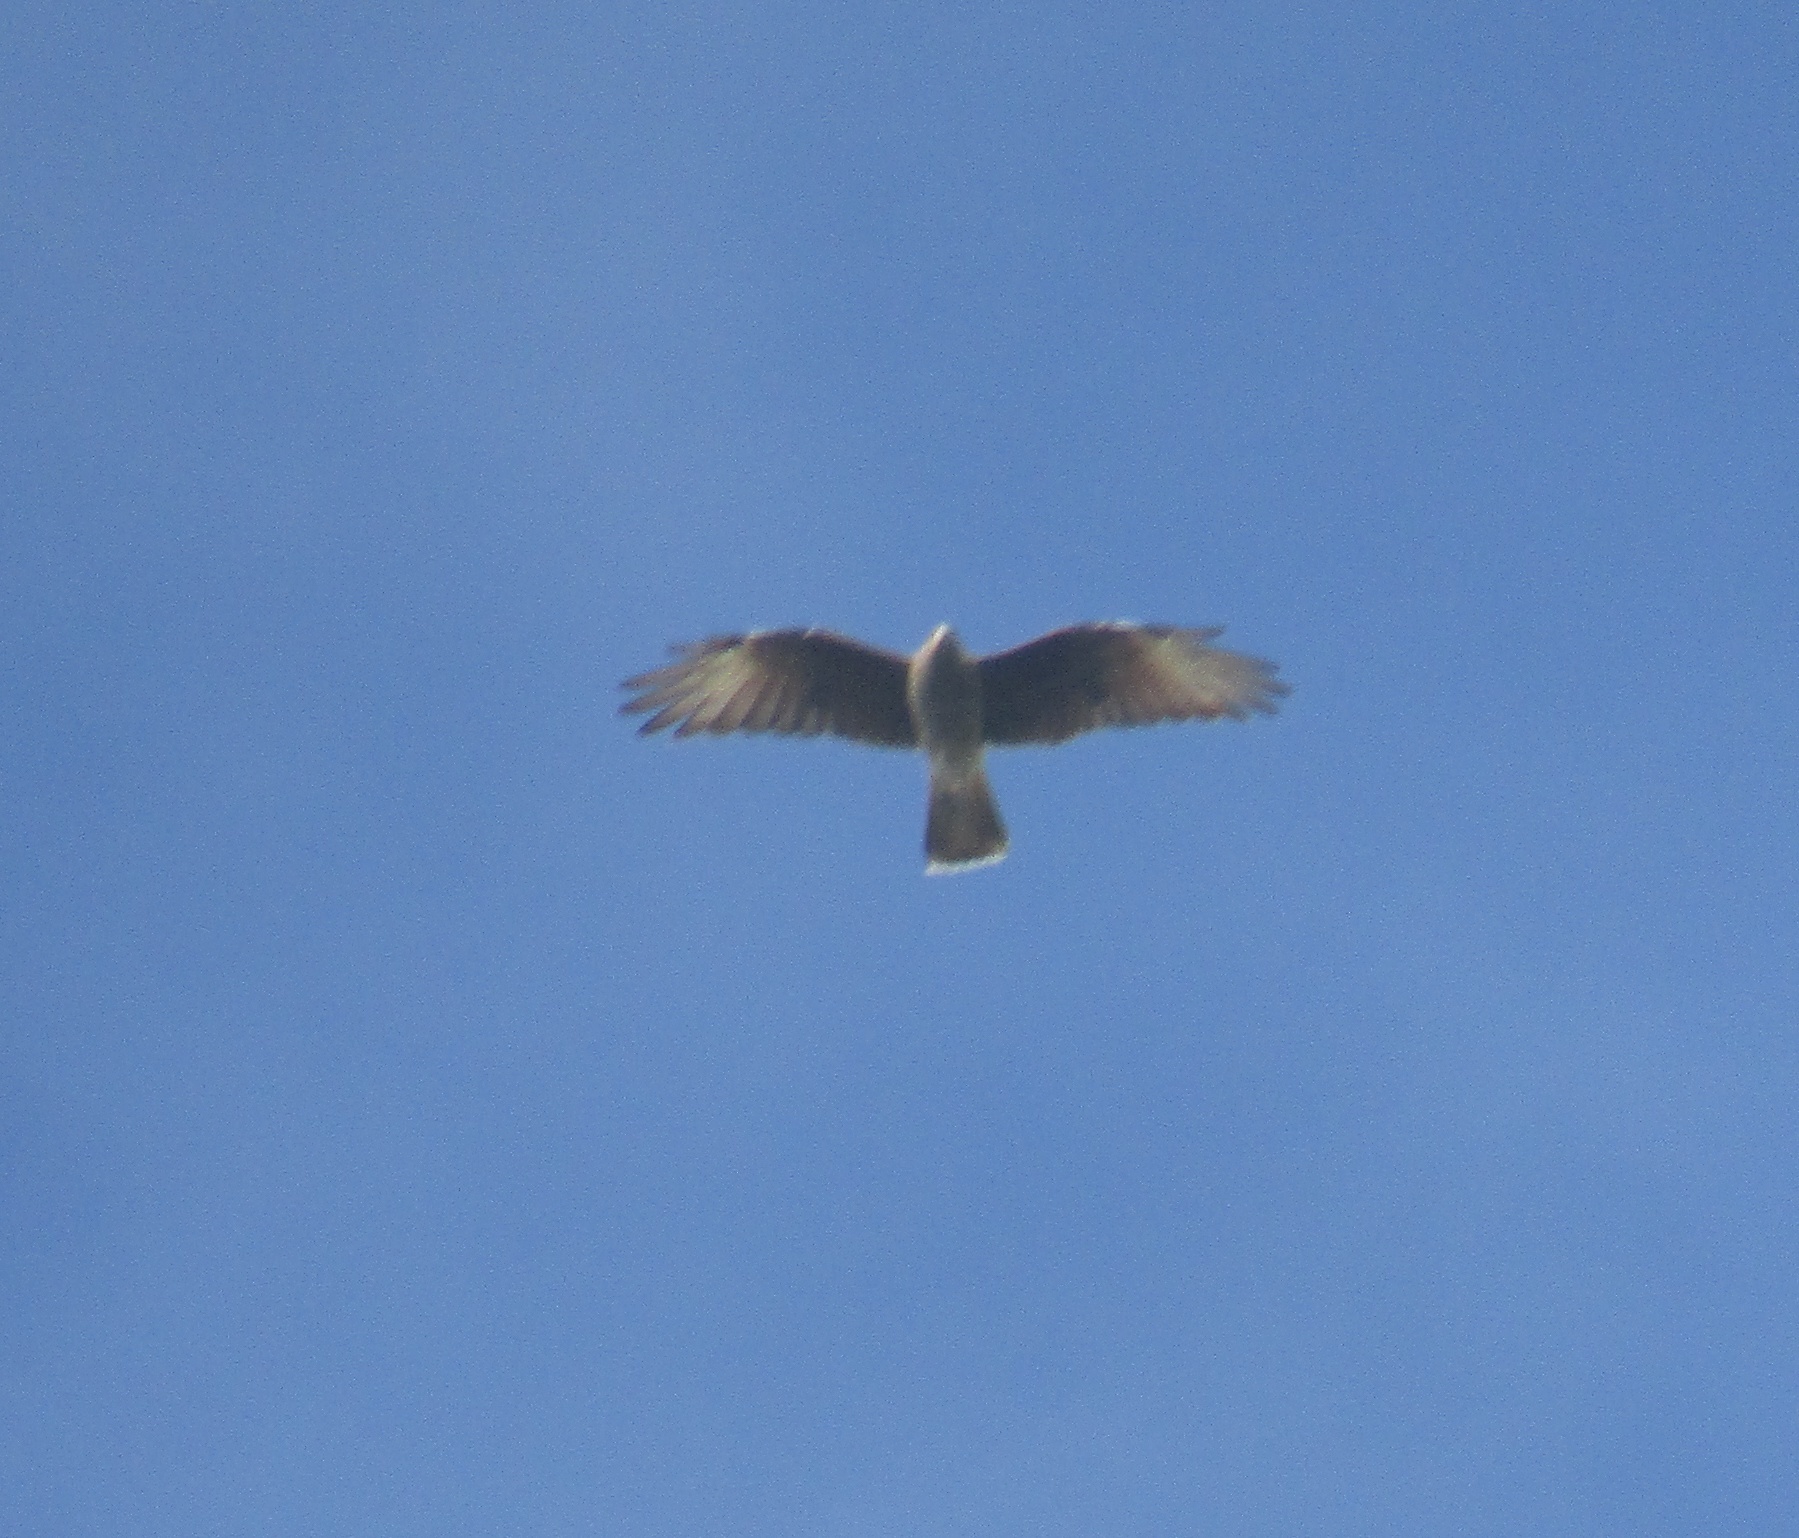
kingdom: Animalia
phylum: Chordata
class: Aves
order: Falconiformes
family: Falconidae
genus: Daptrius
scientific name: Daptrius
